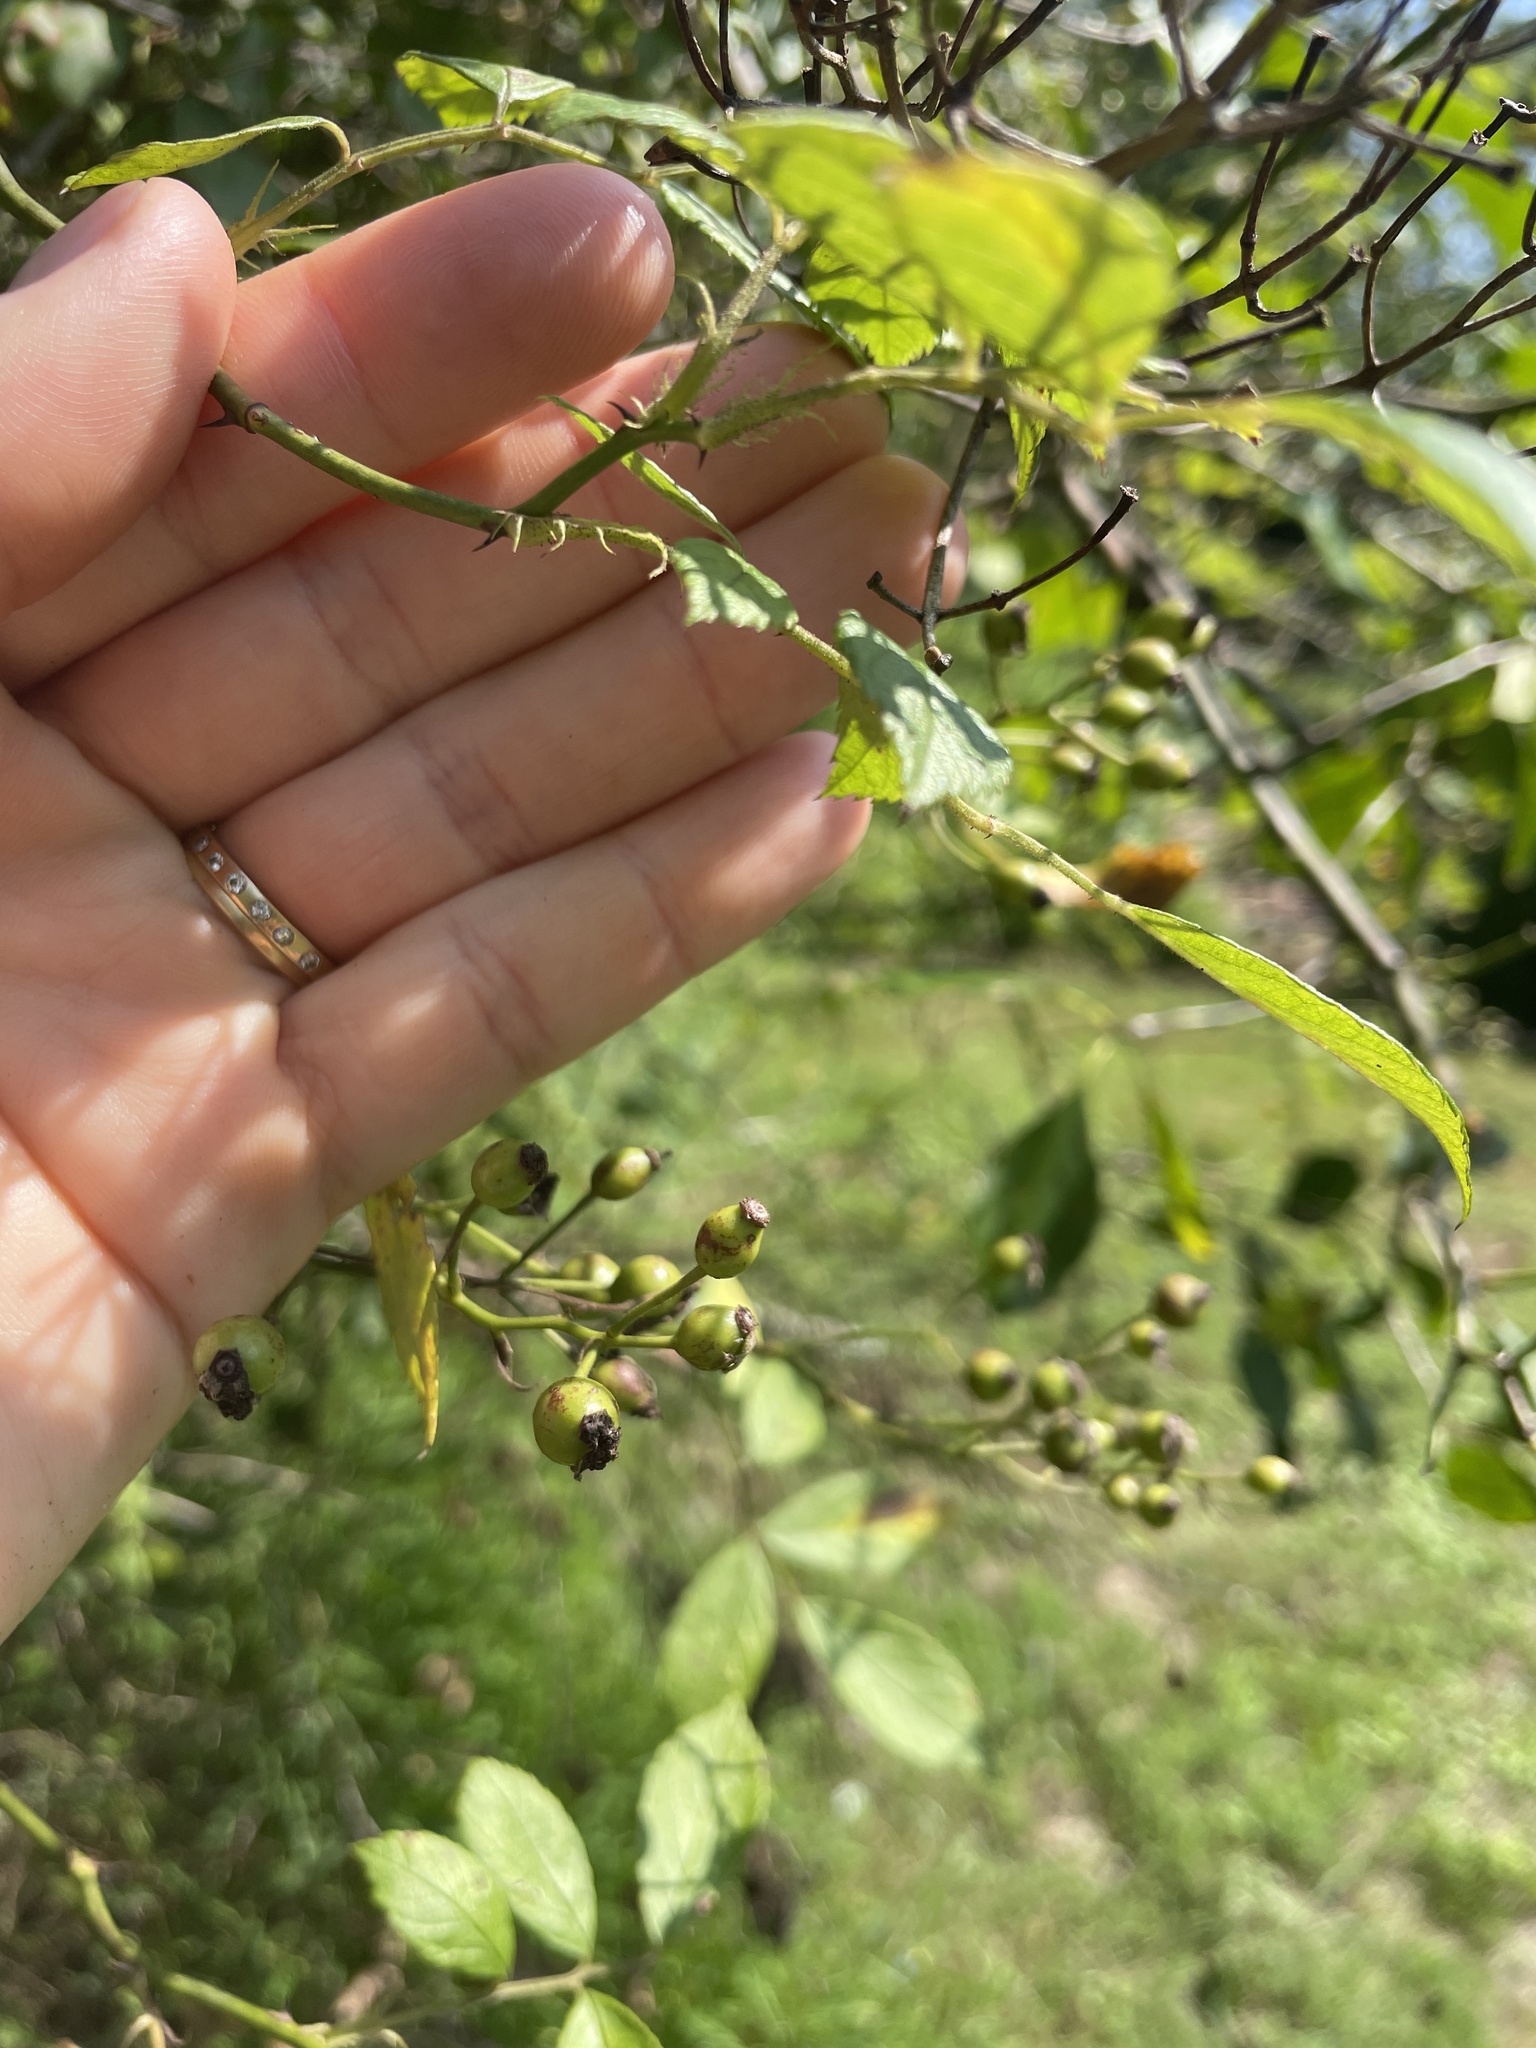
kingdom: Plantae
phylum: Tracheophyta
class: Magnoliopsida
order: Rosales
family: Rosaceae
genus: Rosa
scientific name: Rosa multiflora
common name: Multiflora rose
